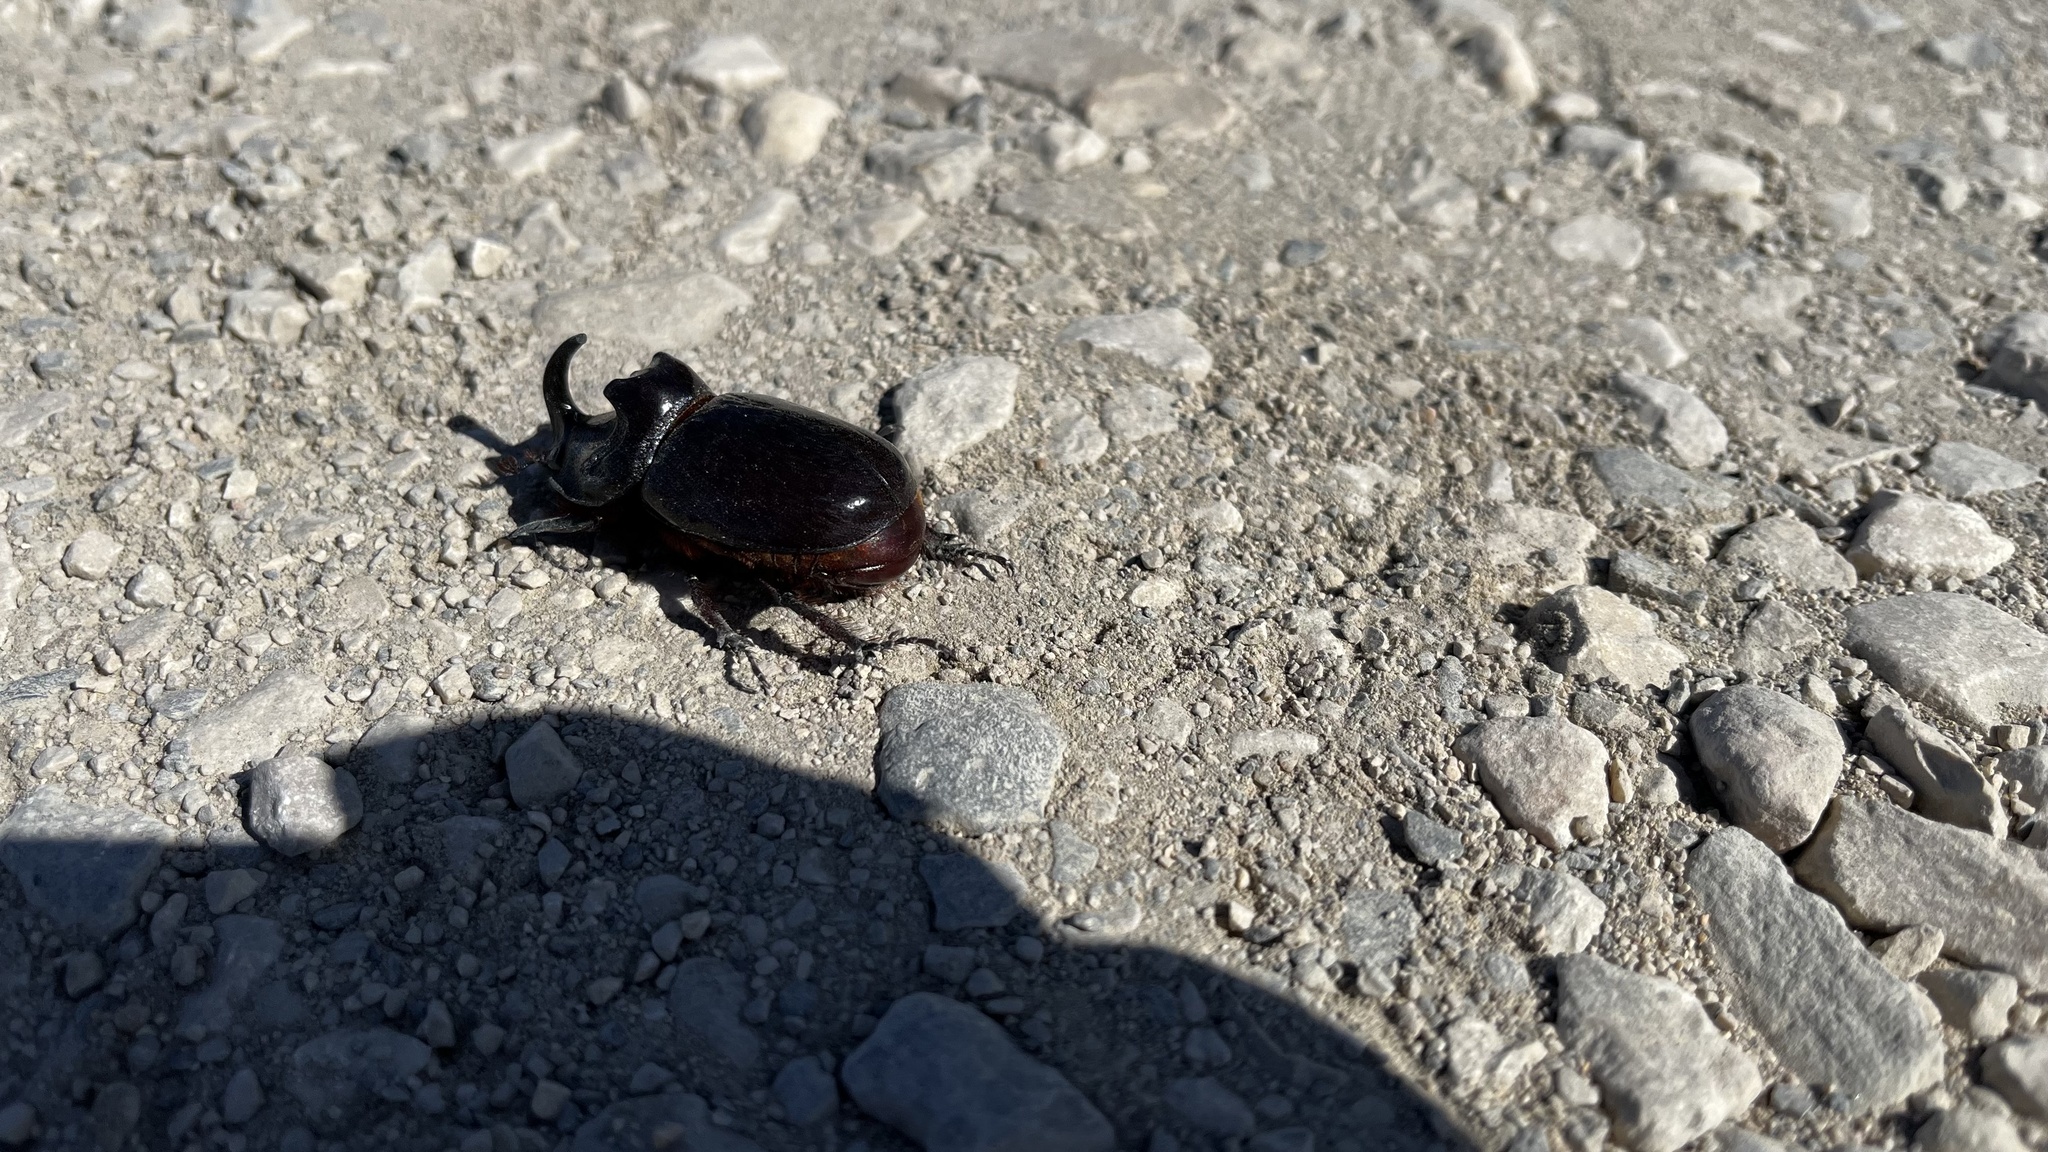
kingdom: Animalia
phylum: Arthropoda
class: Insecta
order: Coleoptera
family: Scarabaeidae
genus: Oryctes
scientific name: Oryctes nasicornis
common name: European rhinoceros beetle
